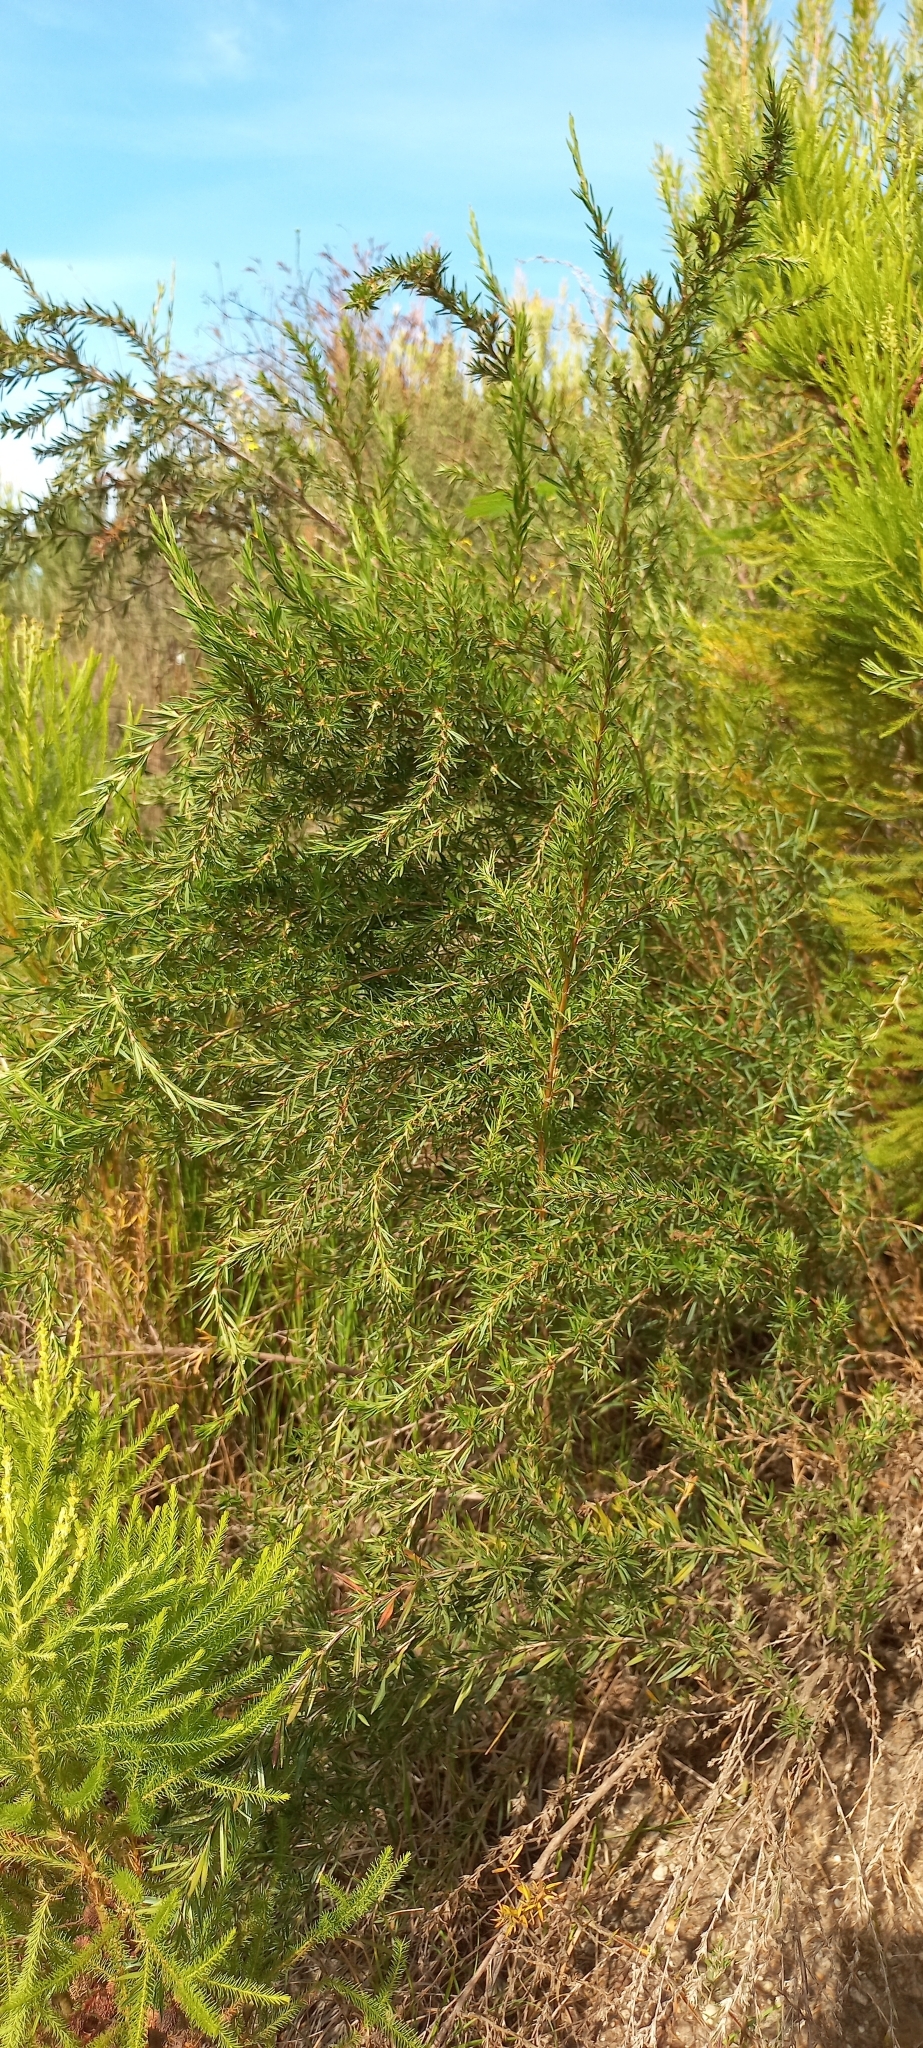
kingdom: Plantae
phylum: Tracheophyta
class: Magnoliopsida
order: Rosales
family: Rosaceae
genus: Cliffortia
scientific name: Cliffortia strobilifera
